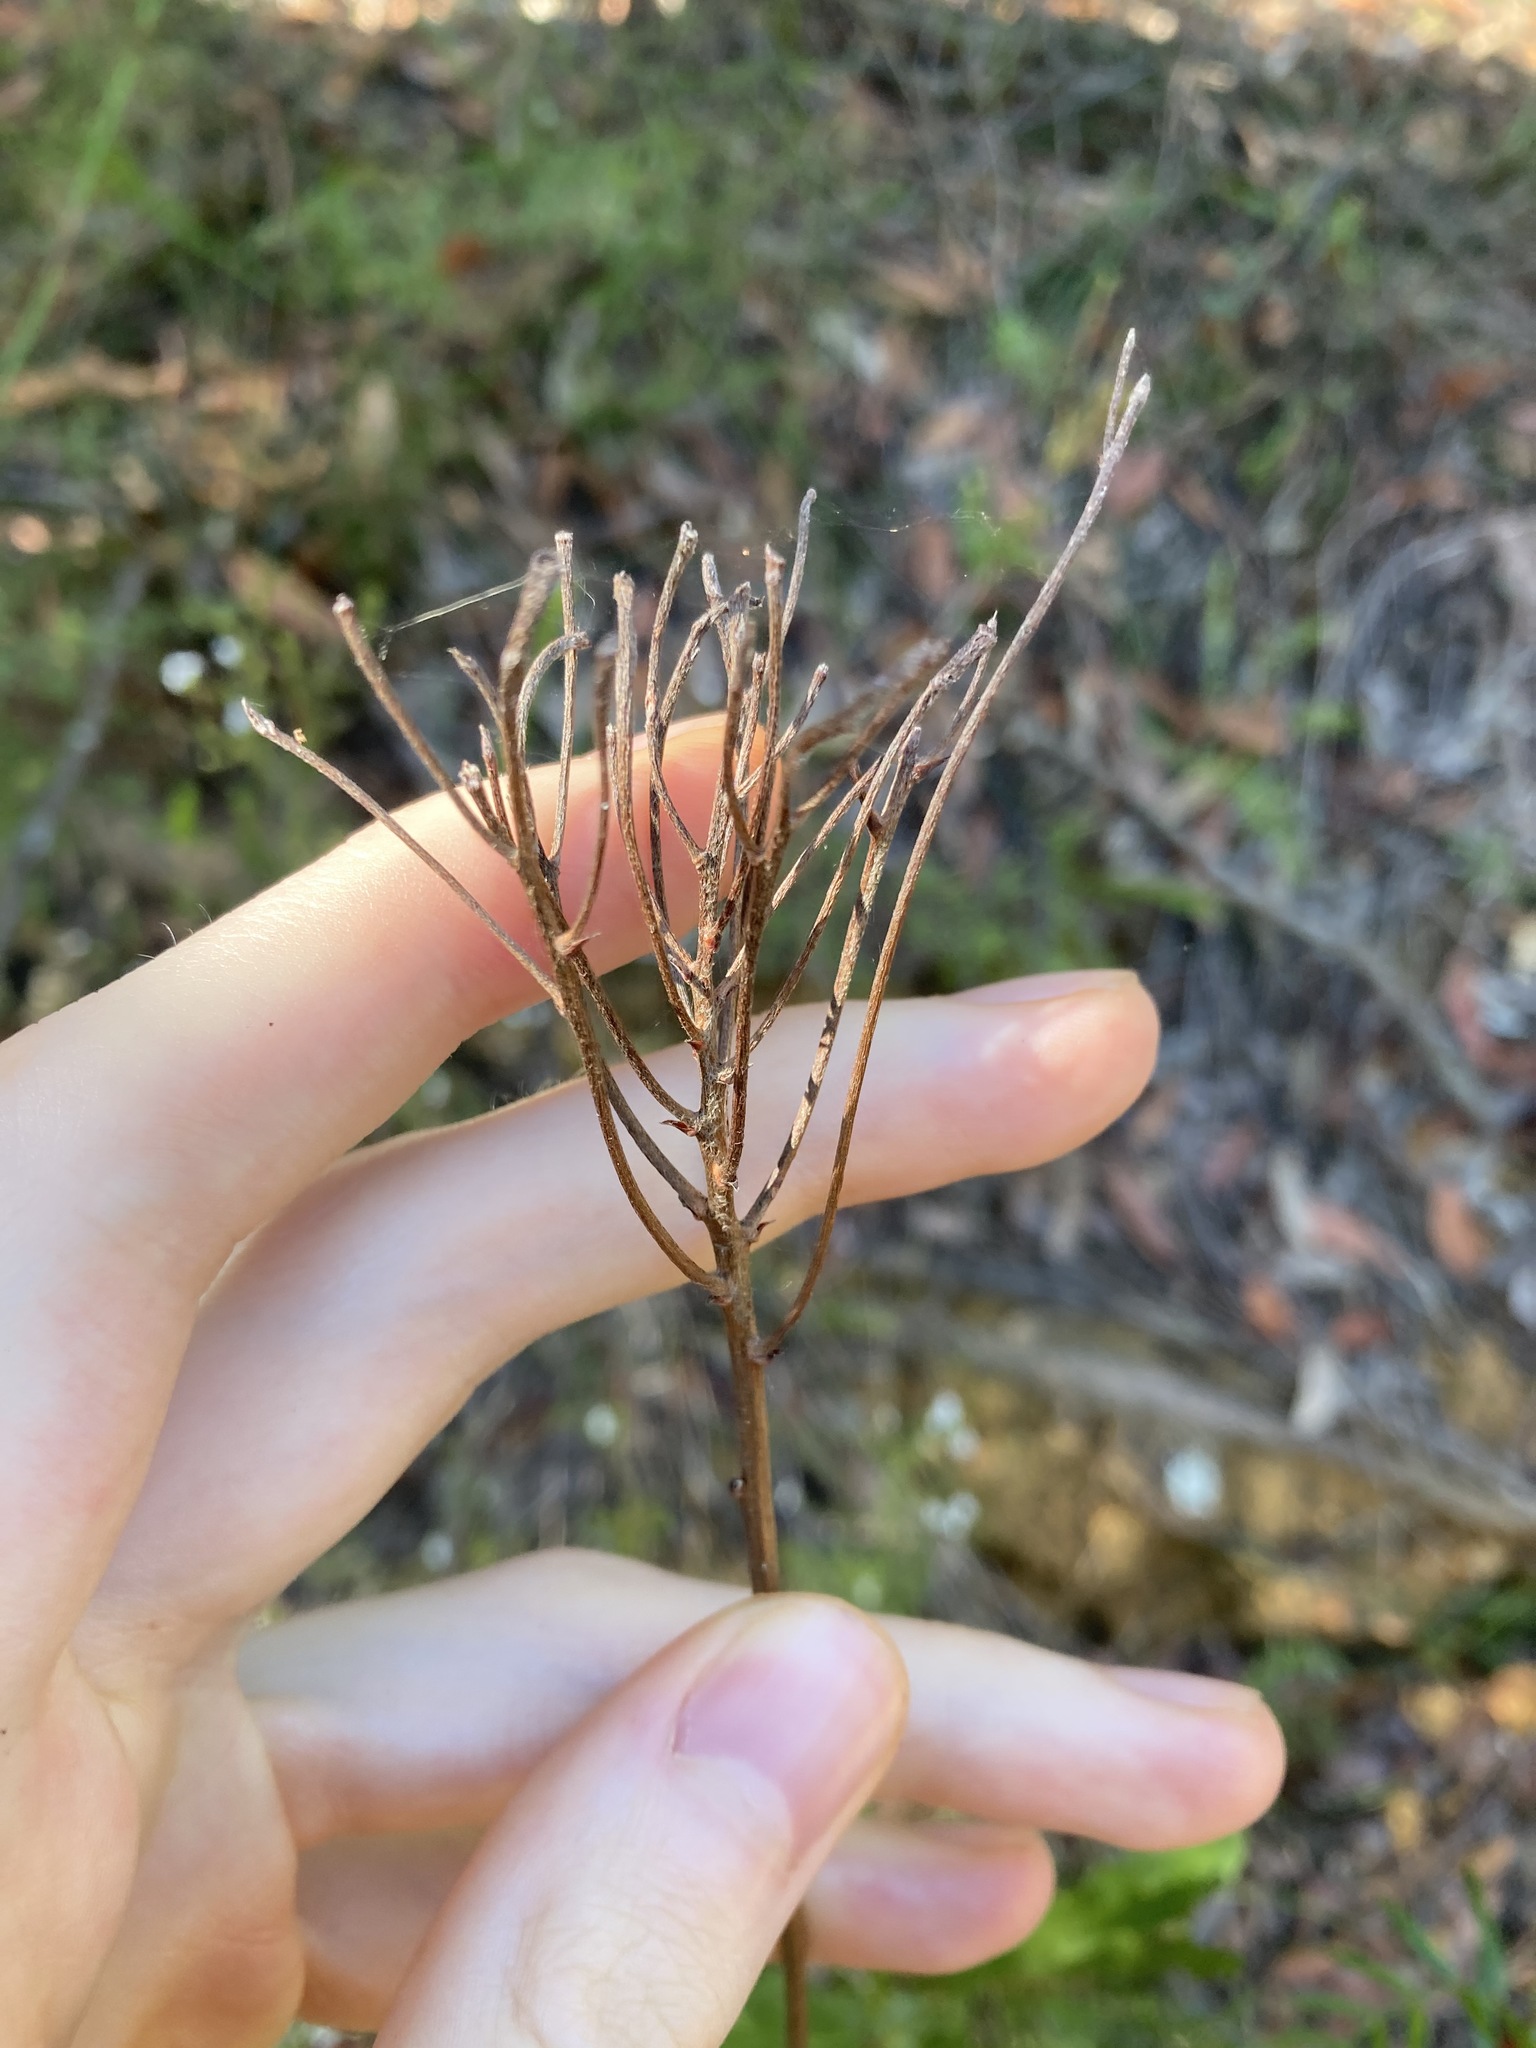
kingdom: Plantae
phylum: Tracheophyta
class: Magnoliopsida
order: Proteales
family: Proteaceae
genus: Conospermum
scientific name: Conospermum longifolium
